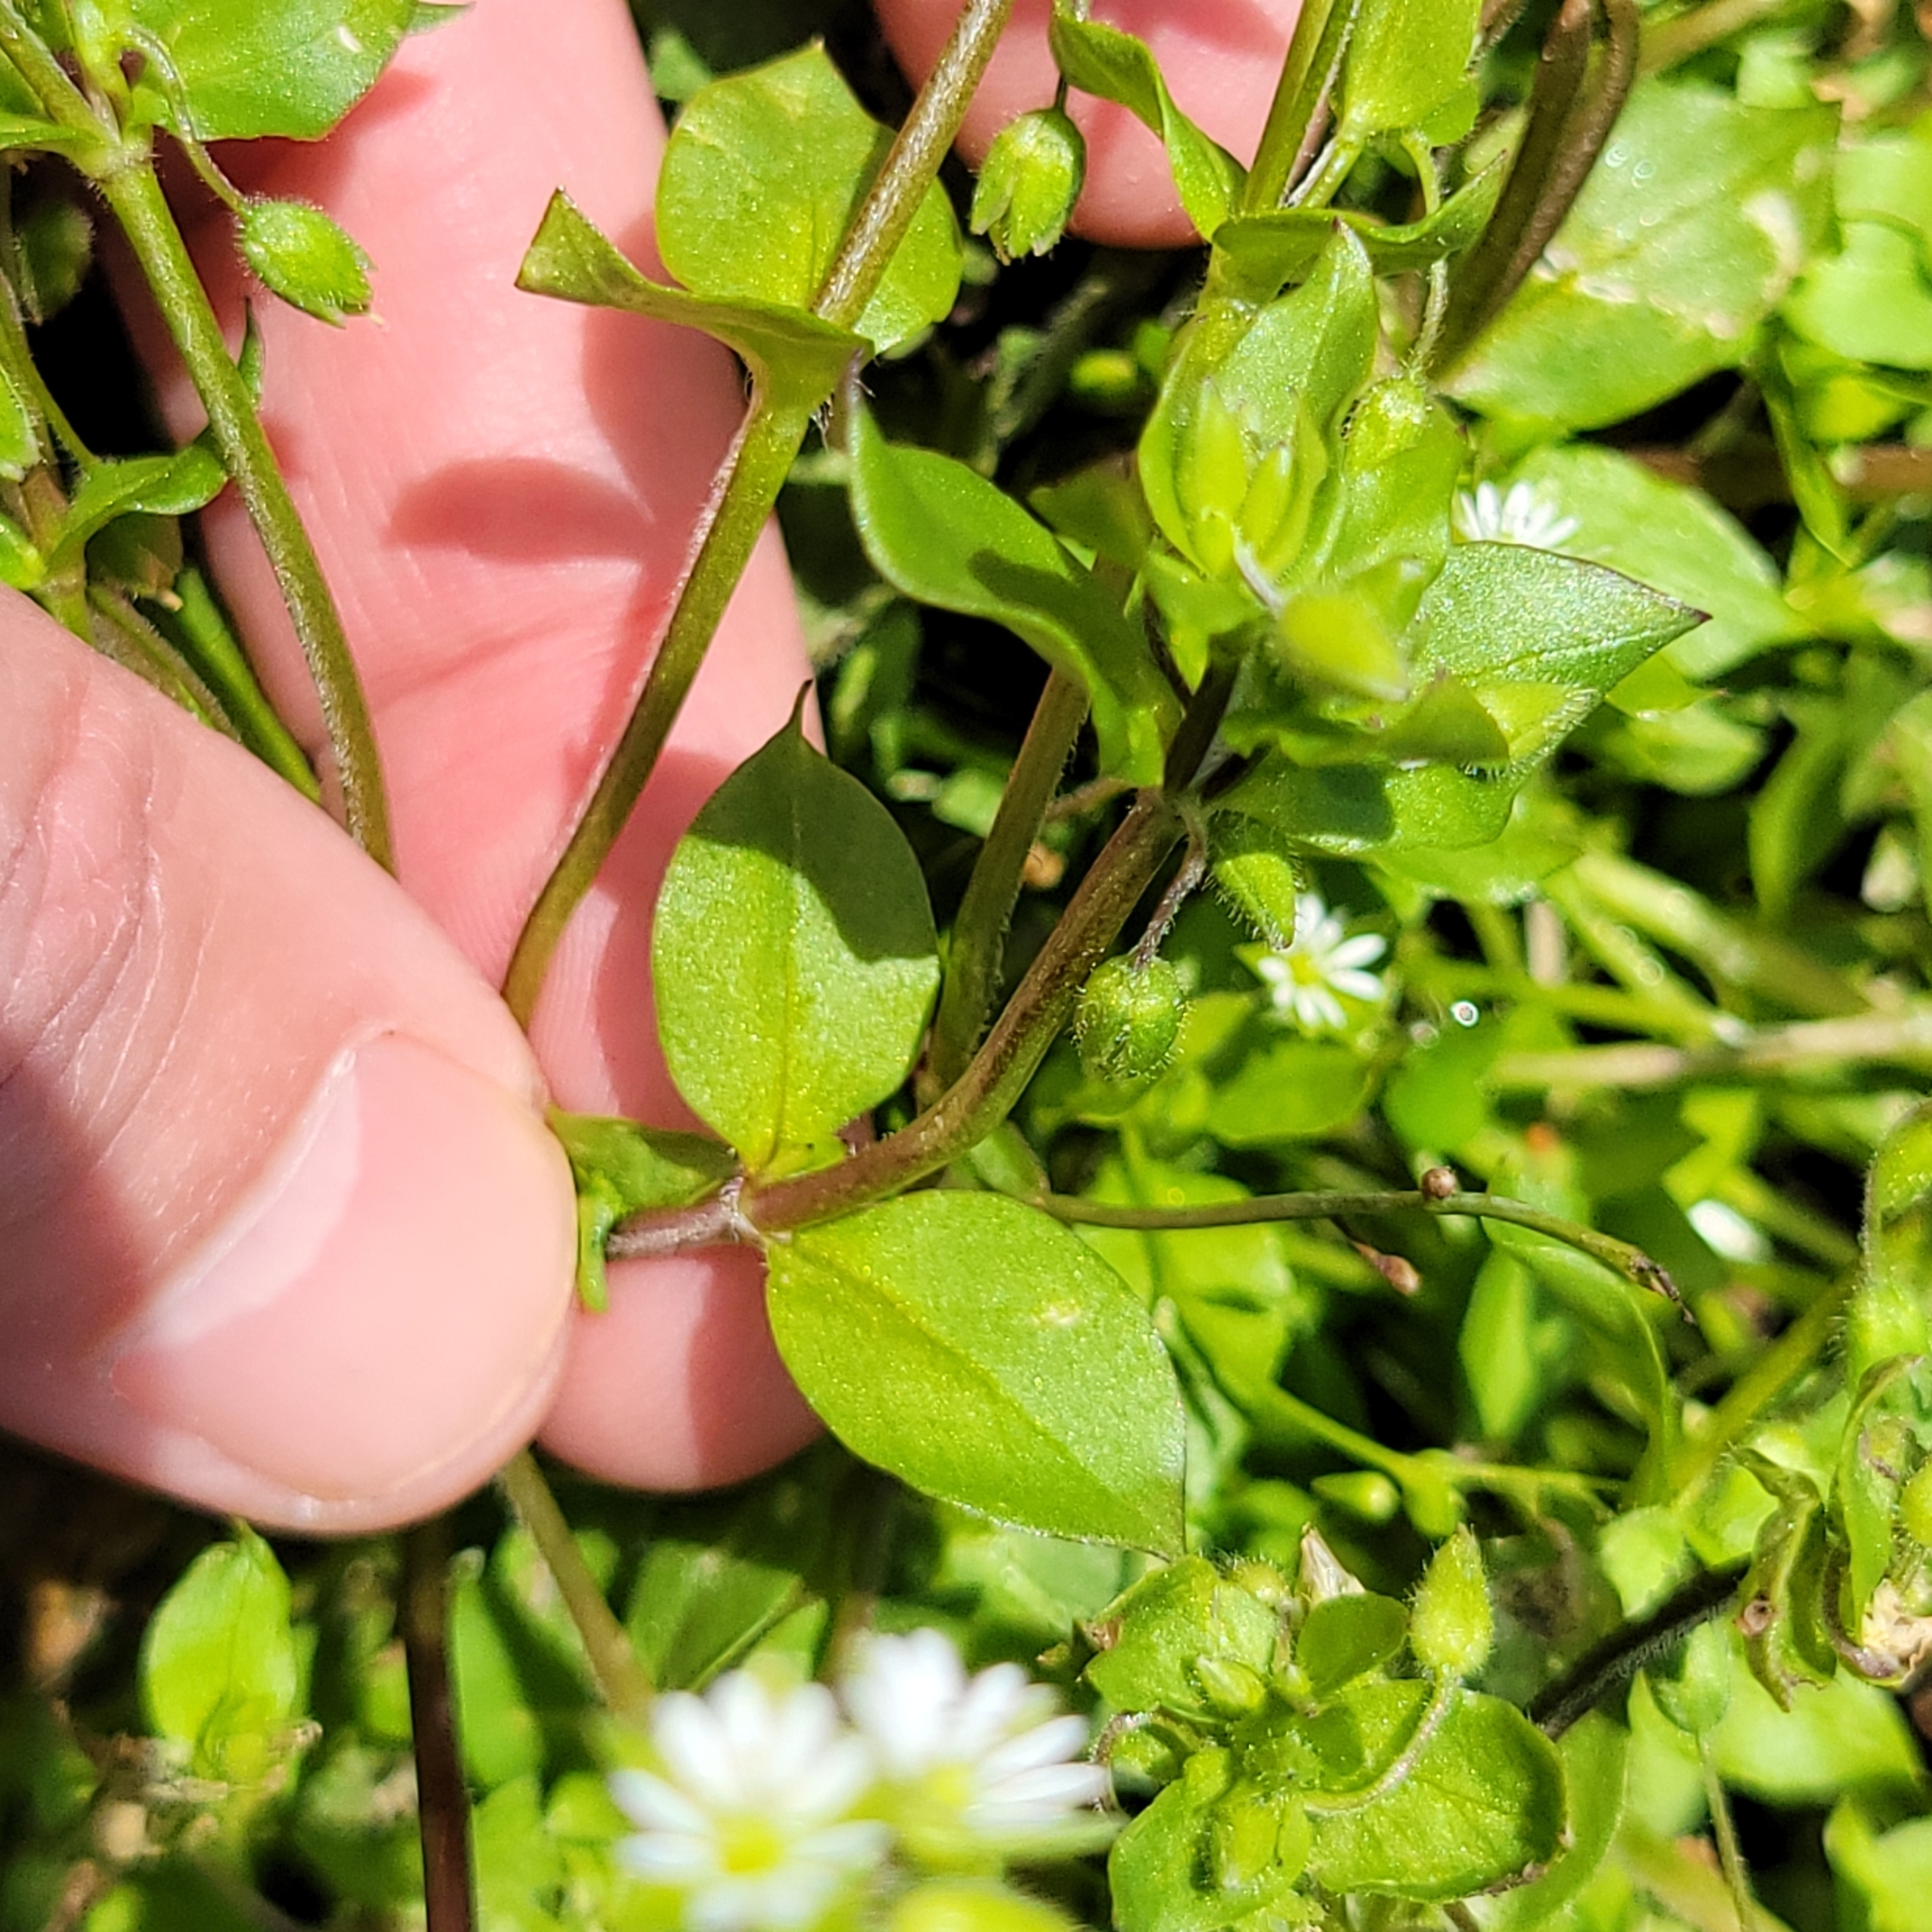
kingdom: Plantae
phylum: Tracheophyta
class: Magnoliopsida
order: Caryophyllales
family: Caryophyllaceae
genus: Stellaria
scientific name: Stellaria media
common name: Common chickweed
